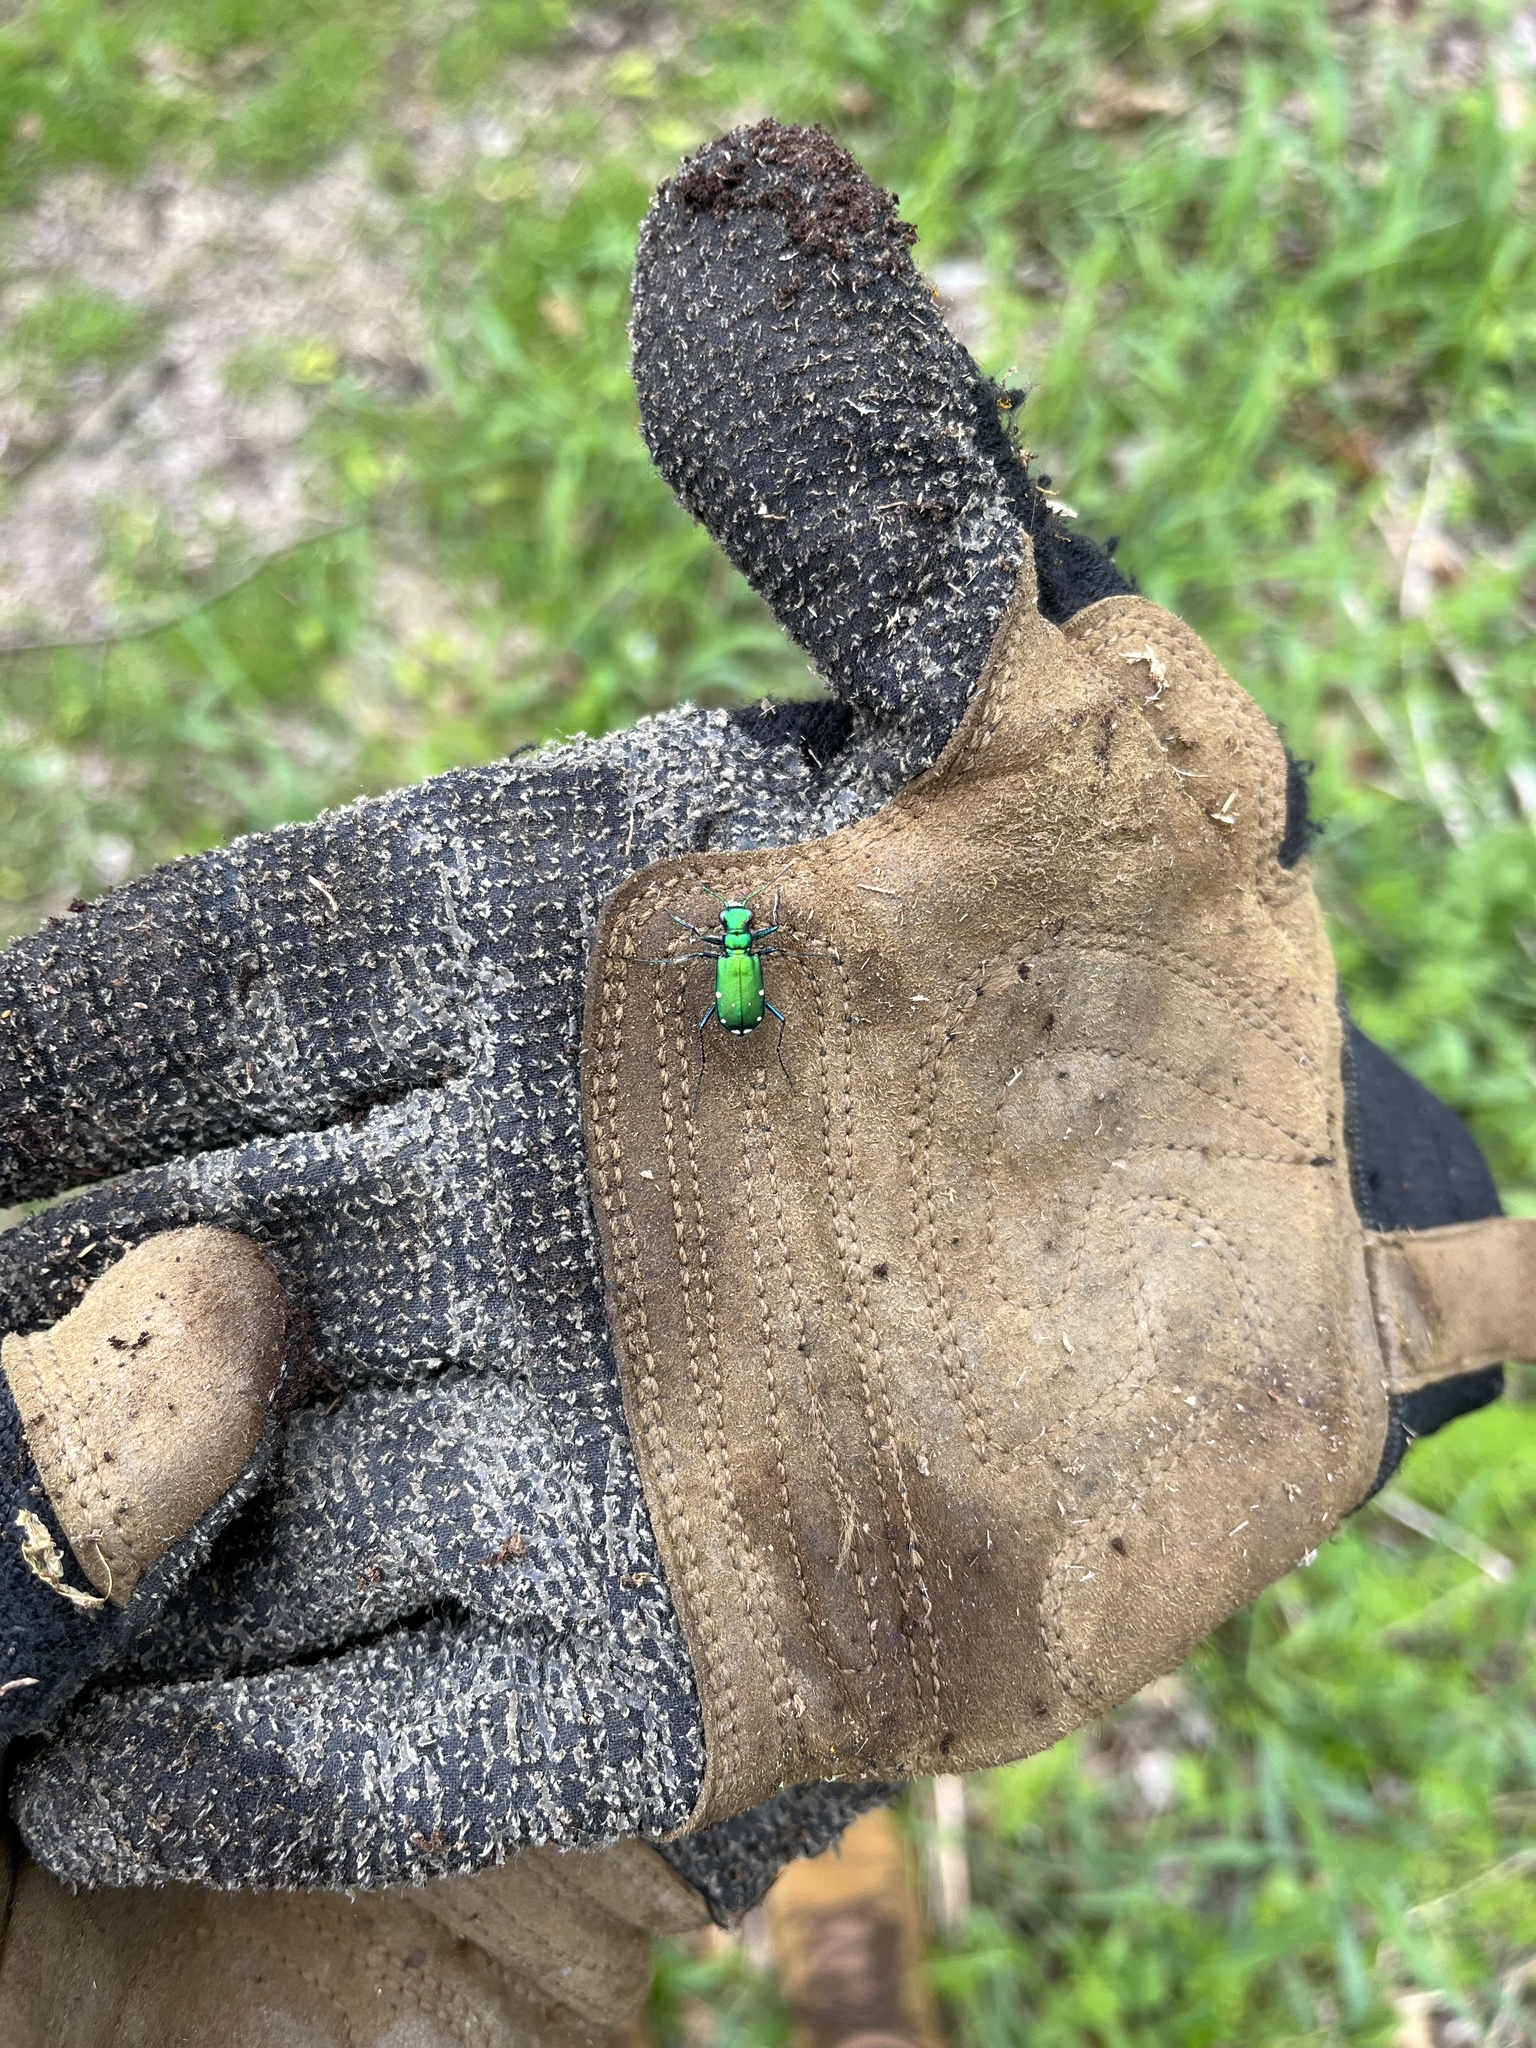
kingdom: Animalia
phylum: Arthropoda
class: Insecta
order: Coleoptera
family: Carabidae
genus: Cicindela
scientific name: Cicindela sexguttata
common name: Six-spotted tiger beetle
